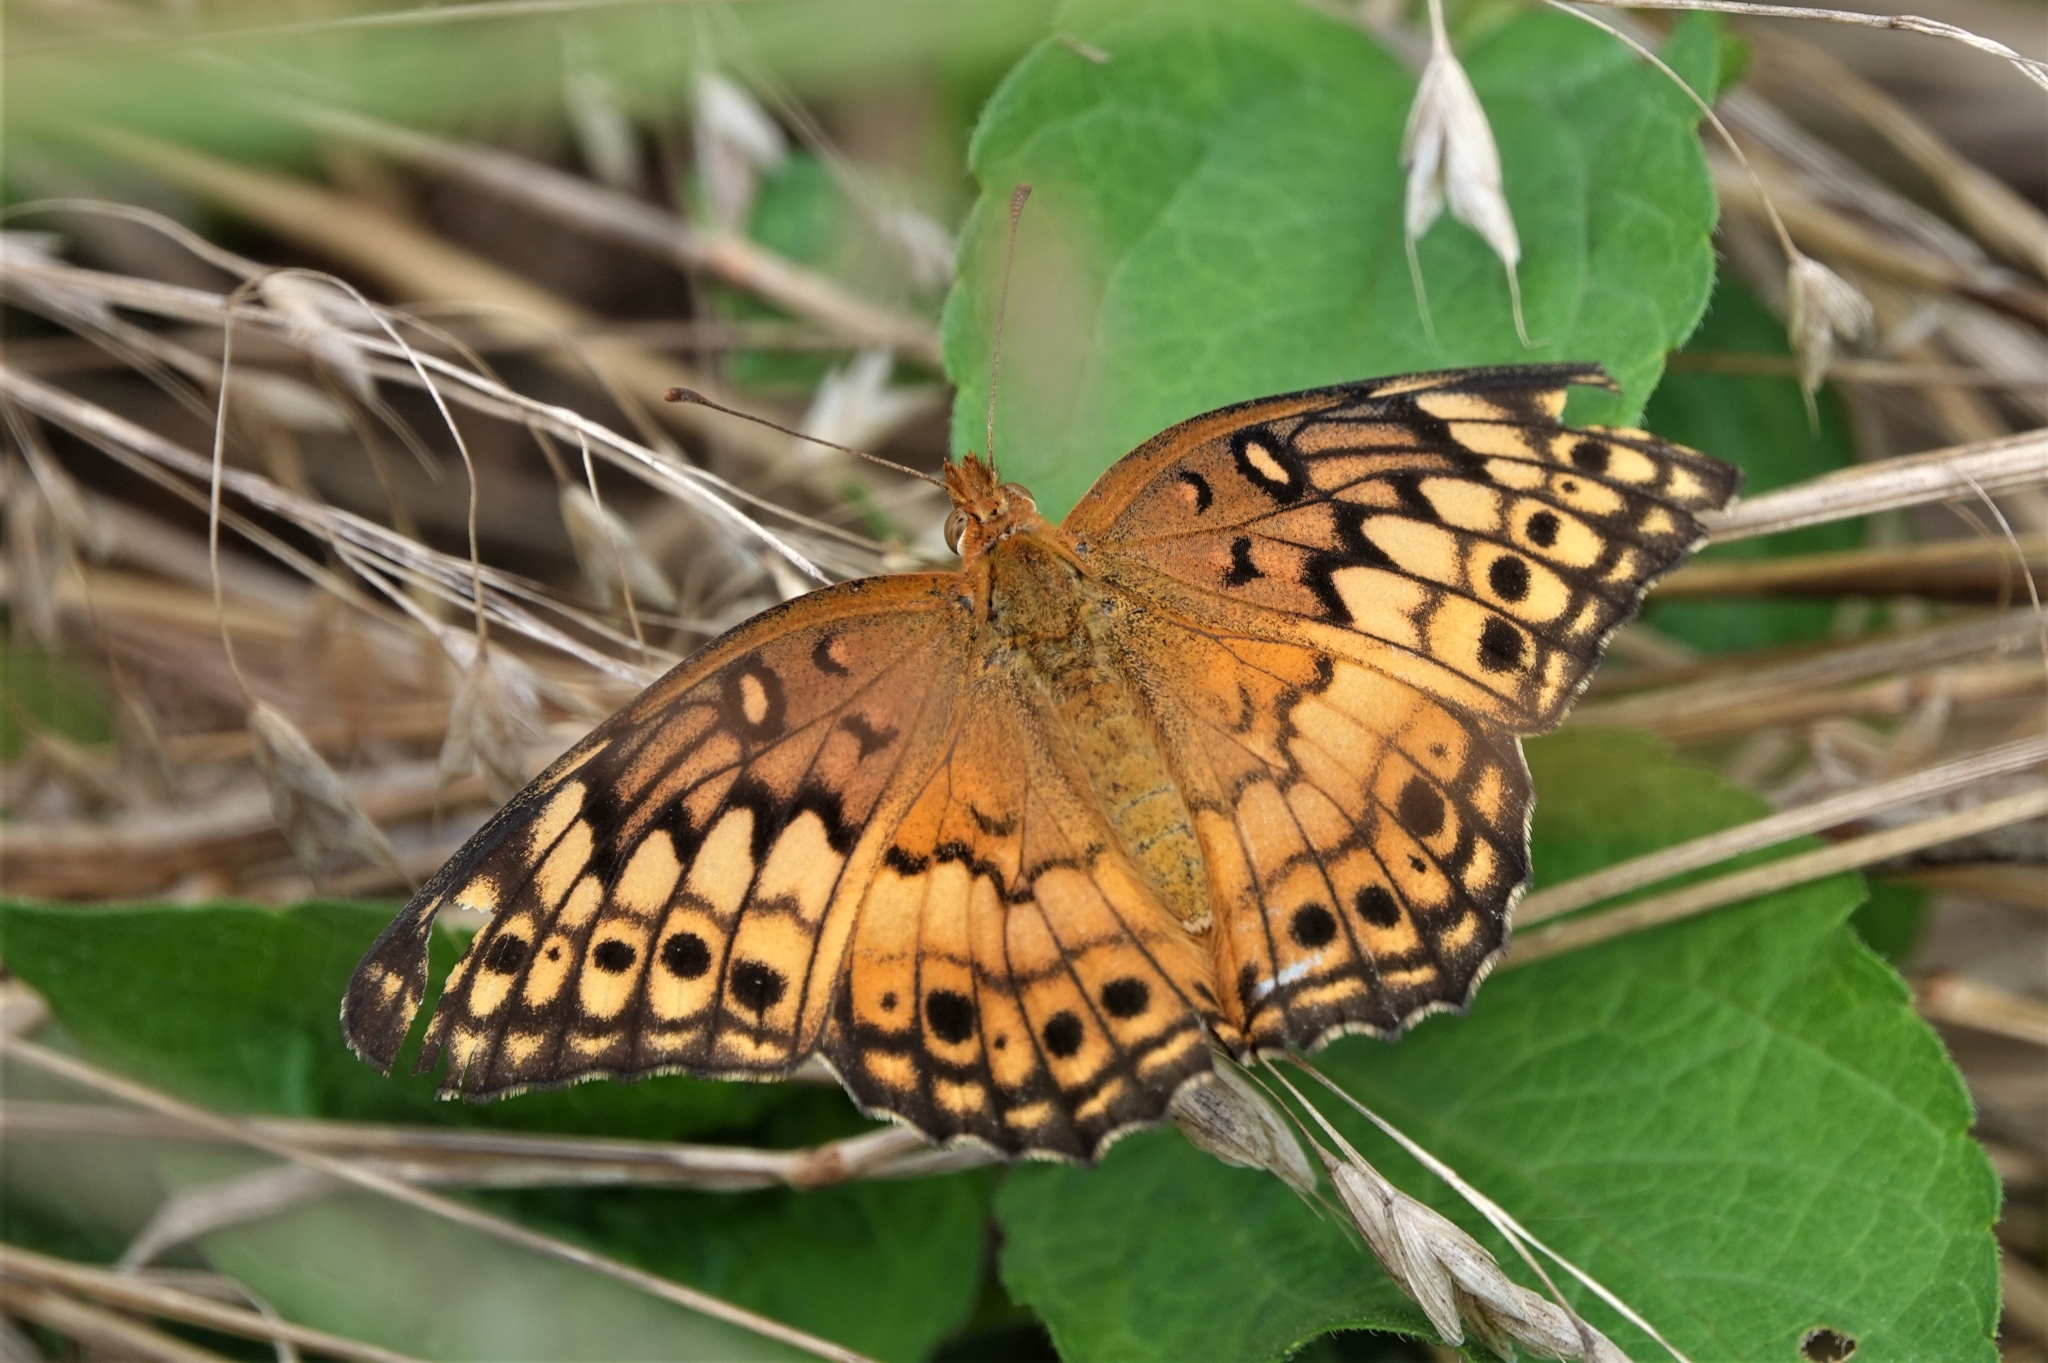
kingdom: Animalia
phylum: Arthropoda
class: Insecta
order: Lepidoptera
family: Nymphalidae
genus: Euptoieta
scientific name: Euptoieta claudia
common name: Variegated fritillary
